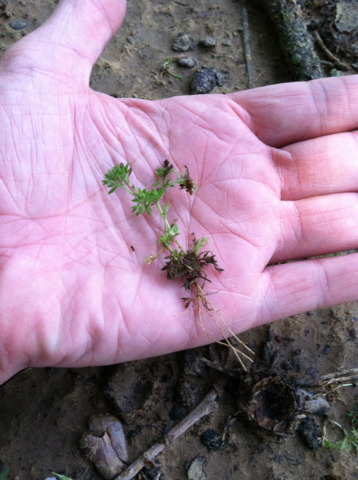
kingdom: Plantae
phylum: Tracheophyta
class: Magnoliopsida
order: Asterales
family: Asteraceae
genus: Soliva
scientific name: Soliva sessilis
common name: Field burrweed
